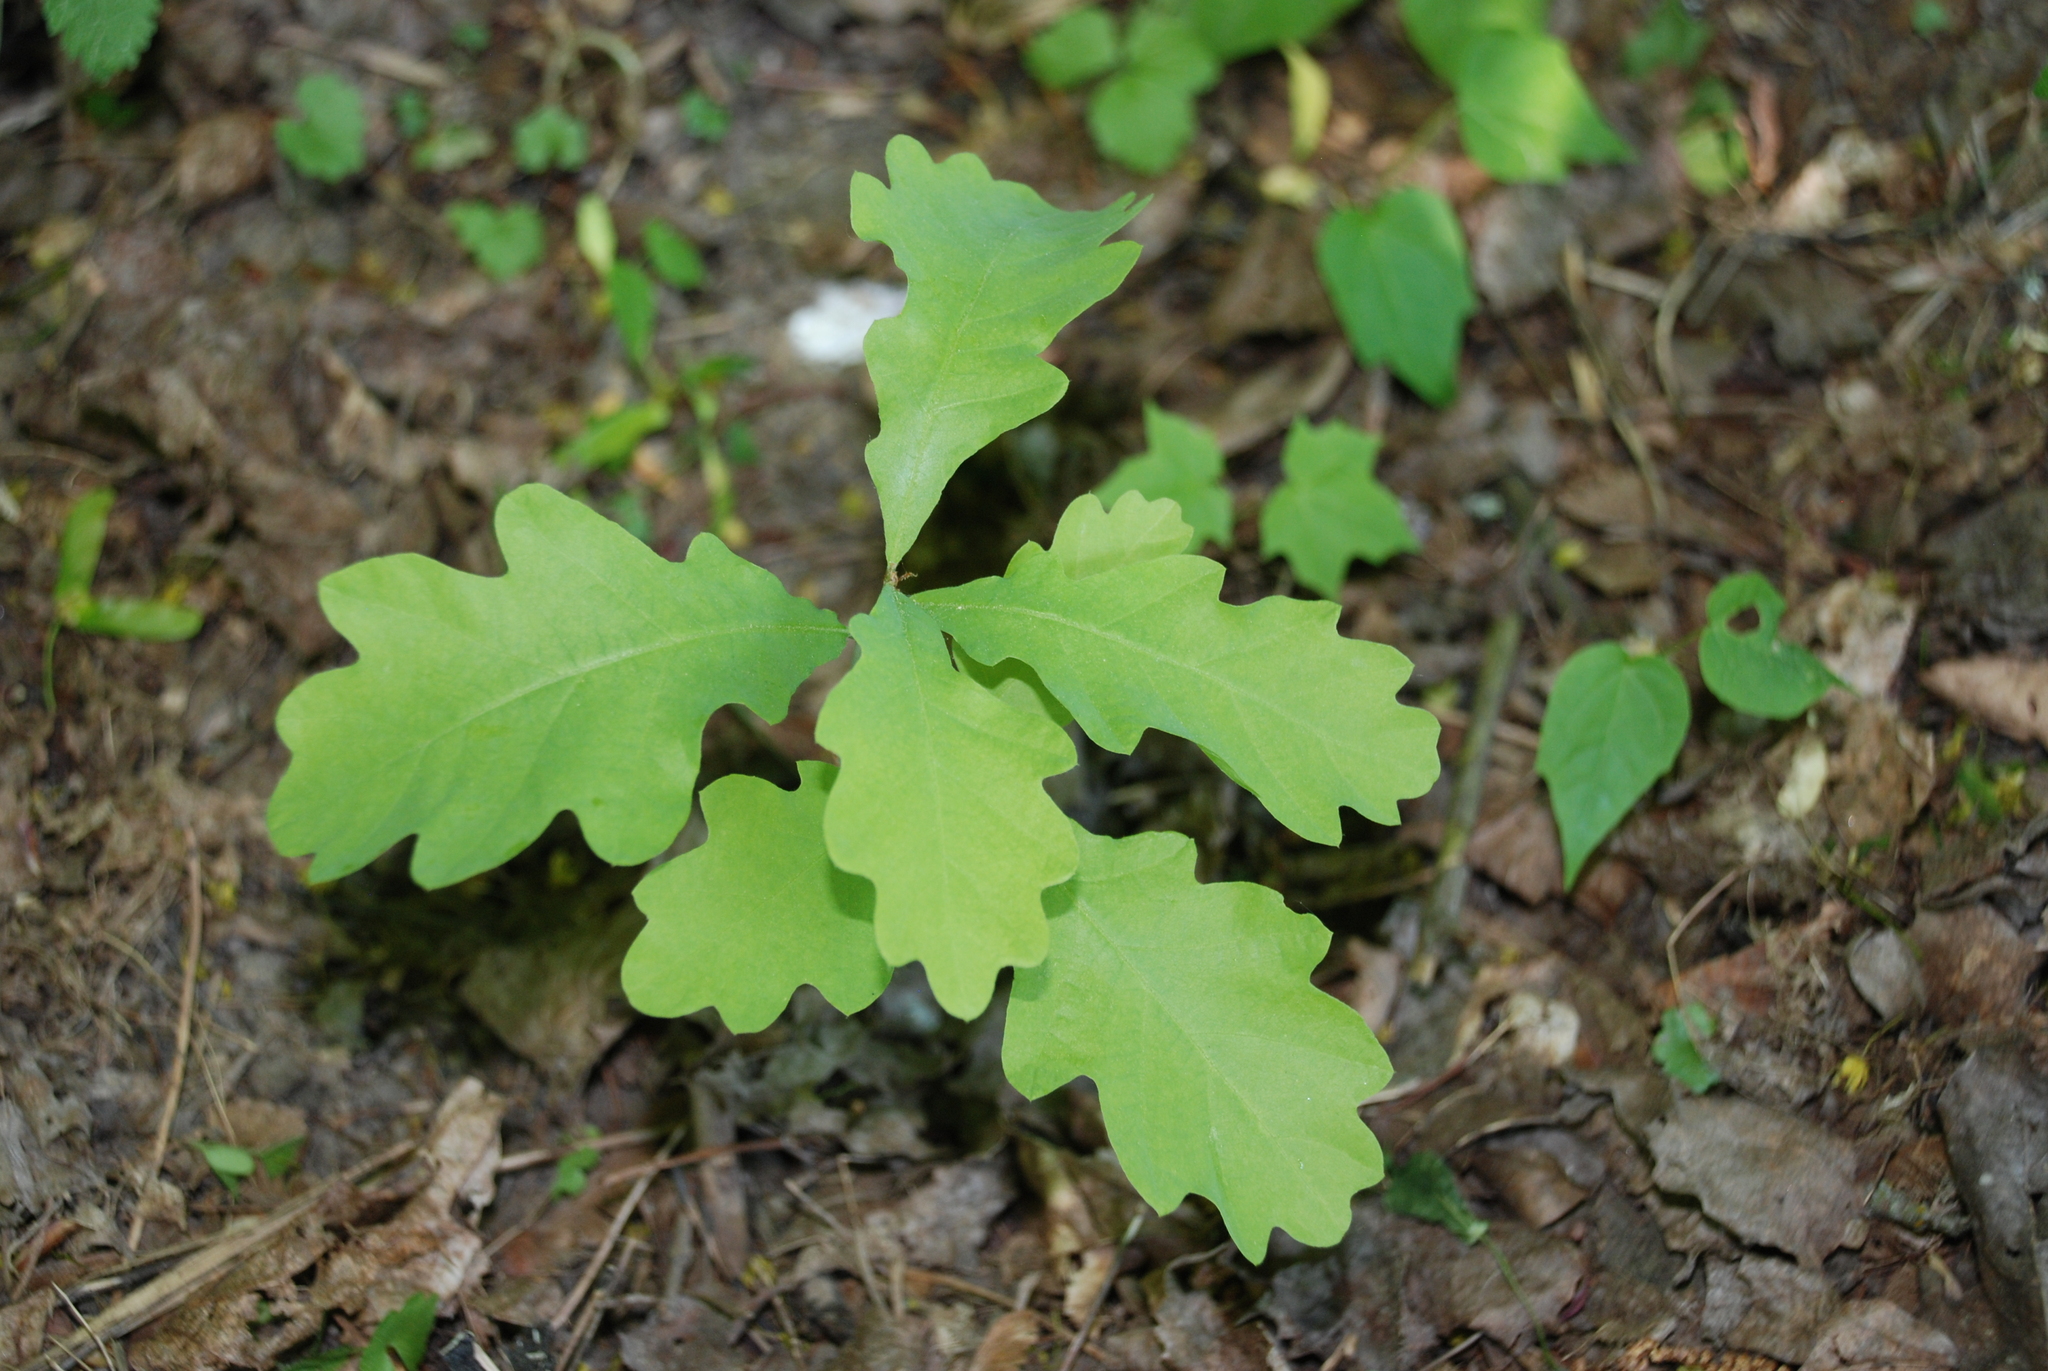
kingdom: Plantae
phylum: Tracheophyta
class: Magnoliopsida
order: Fagales
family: Fagaceae
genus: Quercus
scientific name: Quercus robur
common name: Pedunculate oak
